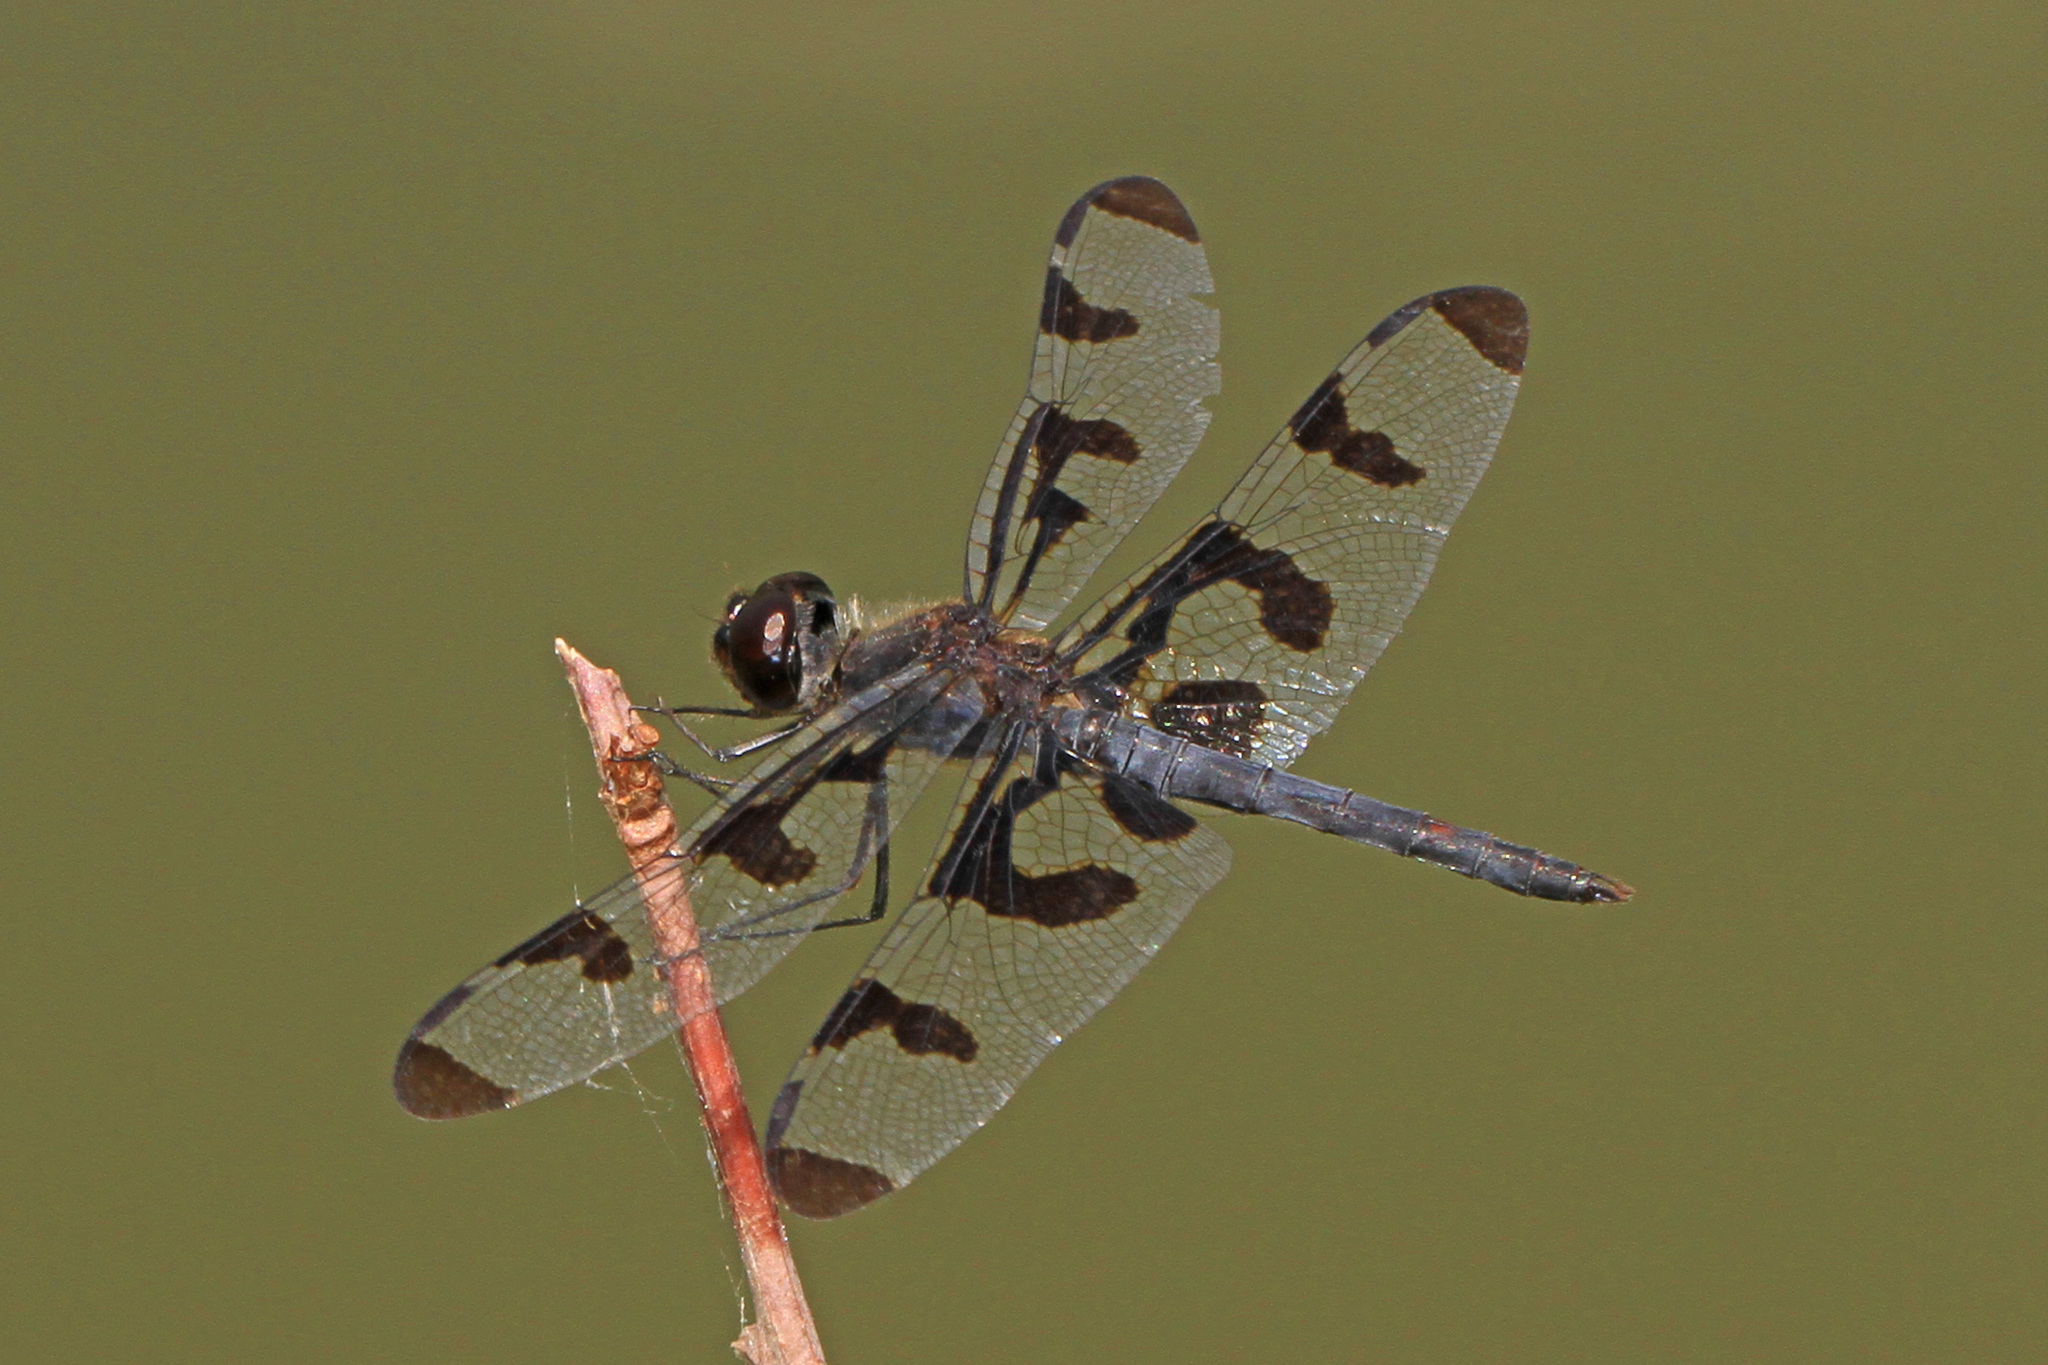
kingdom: Animalia
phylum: Arthropoda
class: Insecta
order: Odonata
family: Libellulidae
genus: Celithemis
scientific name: Celithemis fasciata
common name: Banded pennant
